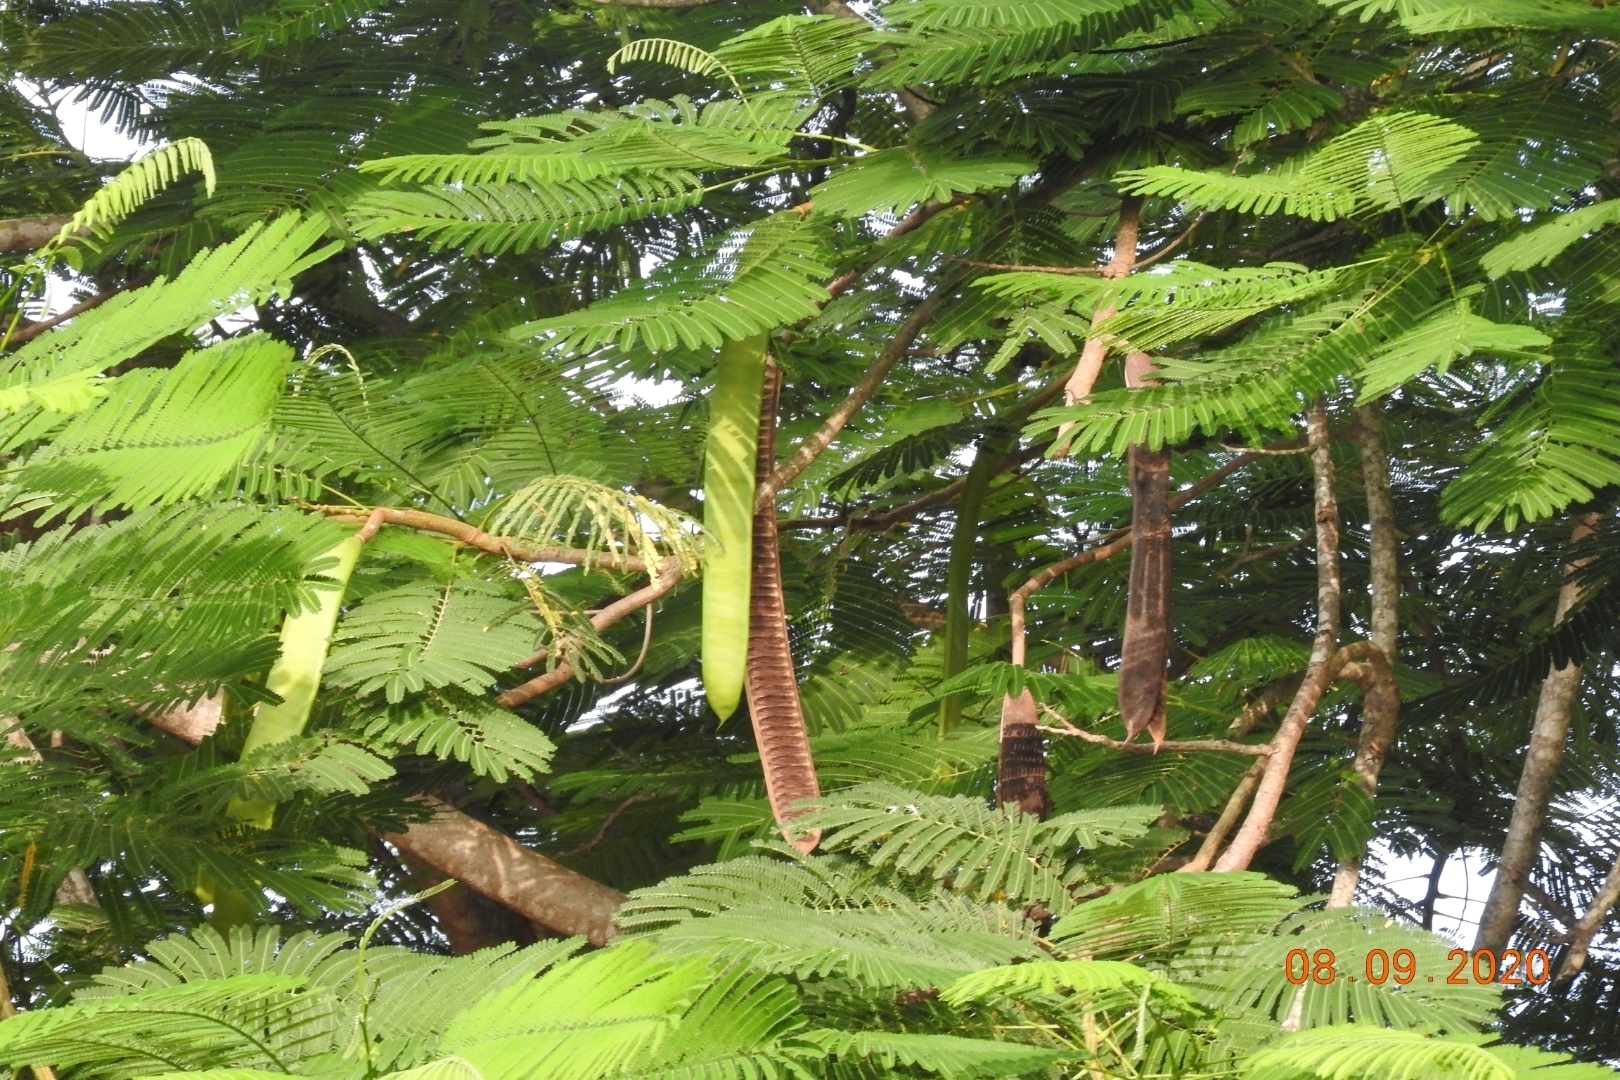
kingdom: Plantae
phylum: Tracheophyta
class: Magnoliopsida
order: Fabales
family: Fabaceae
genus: Delonix
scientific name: Delonix regia
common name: Royal poinciana
